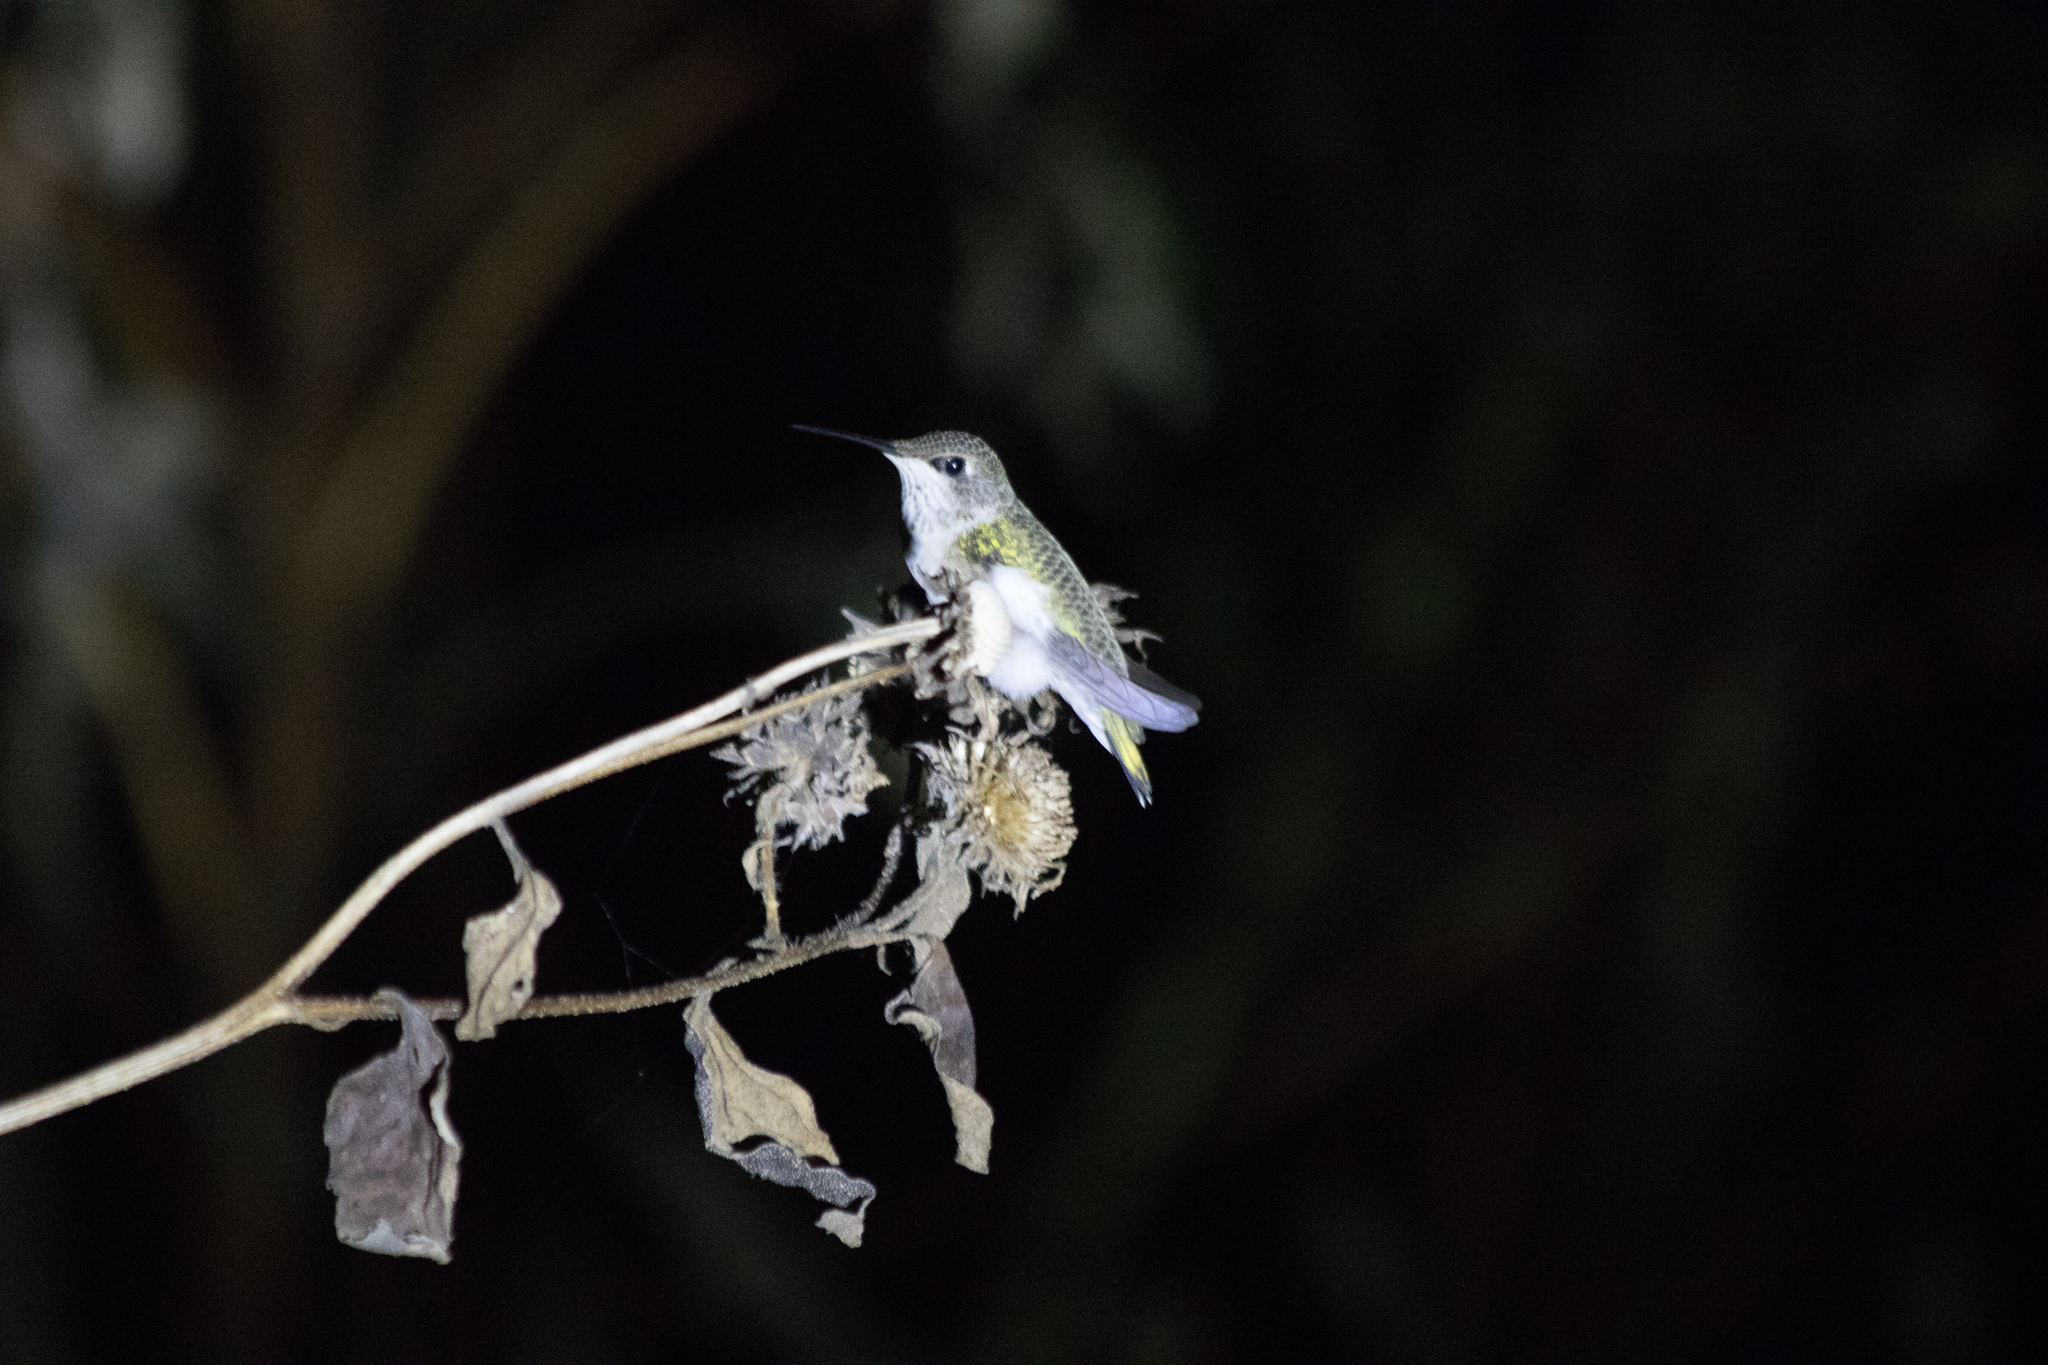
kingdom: Animalia
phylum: Chordata
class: Aves
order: Apodiformes
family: Trochilidae
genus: Archilochus
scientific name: Archilochus alexandri
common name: Black-chinned hummingbird
